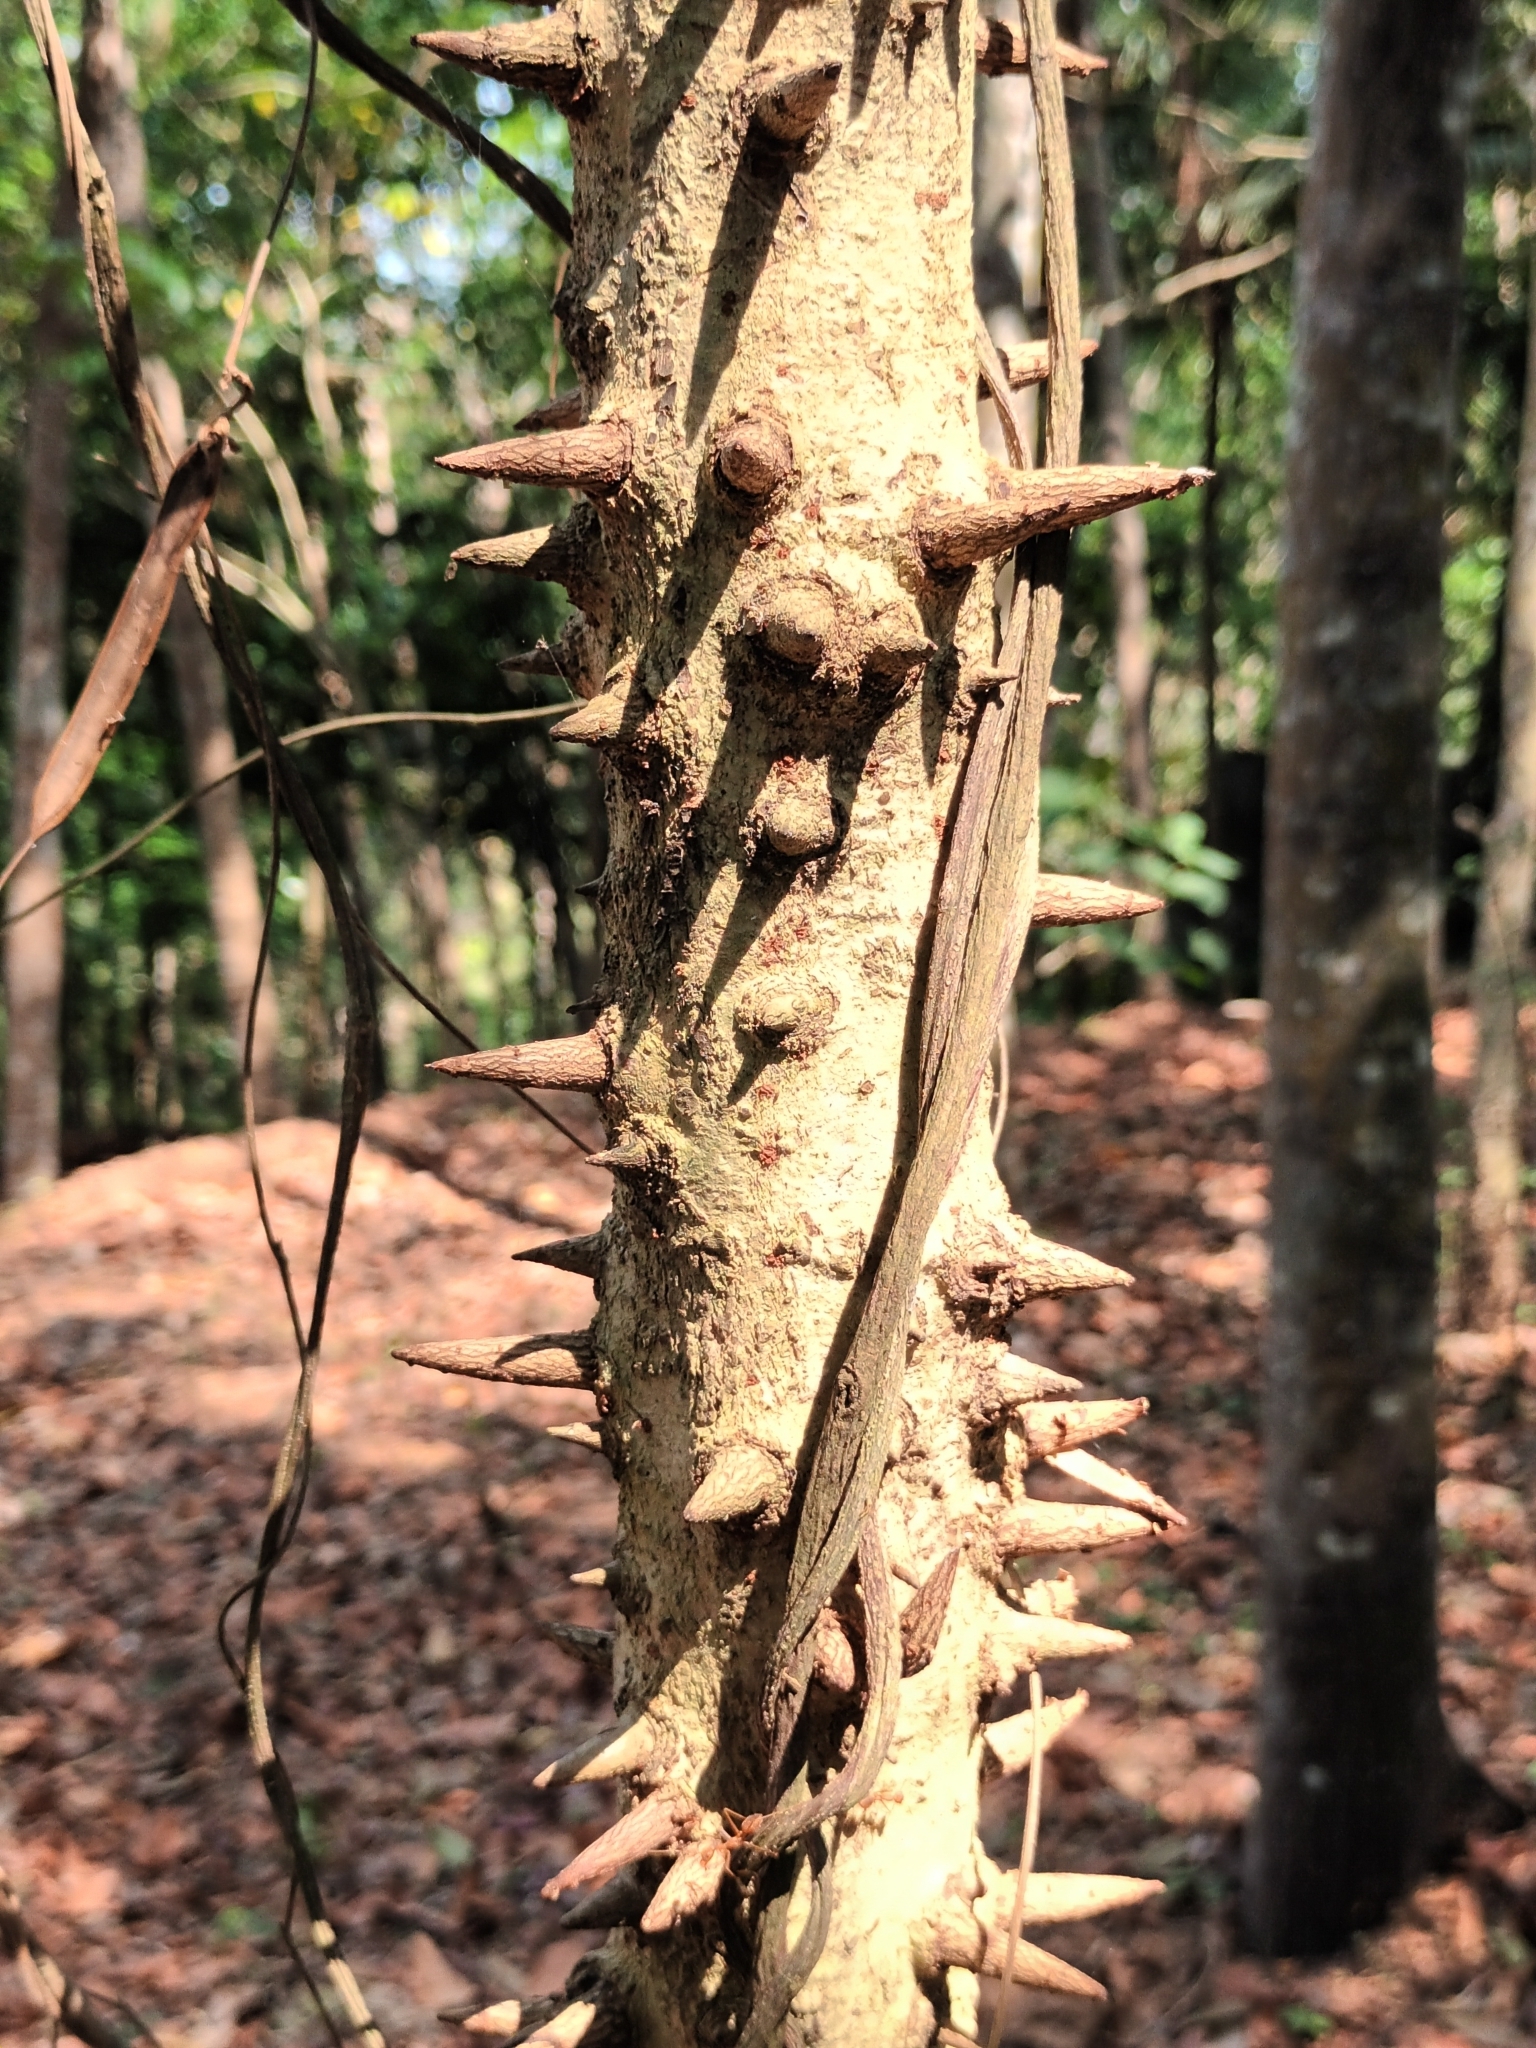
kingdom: Plantae
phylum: Tracheophyta
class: Magnoliopsida
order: Malpighiales
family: Phyllanthaceae
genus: Bridelia
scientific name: Bridelia retusa
